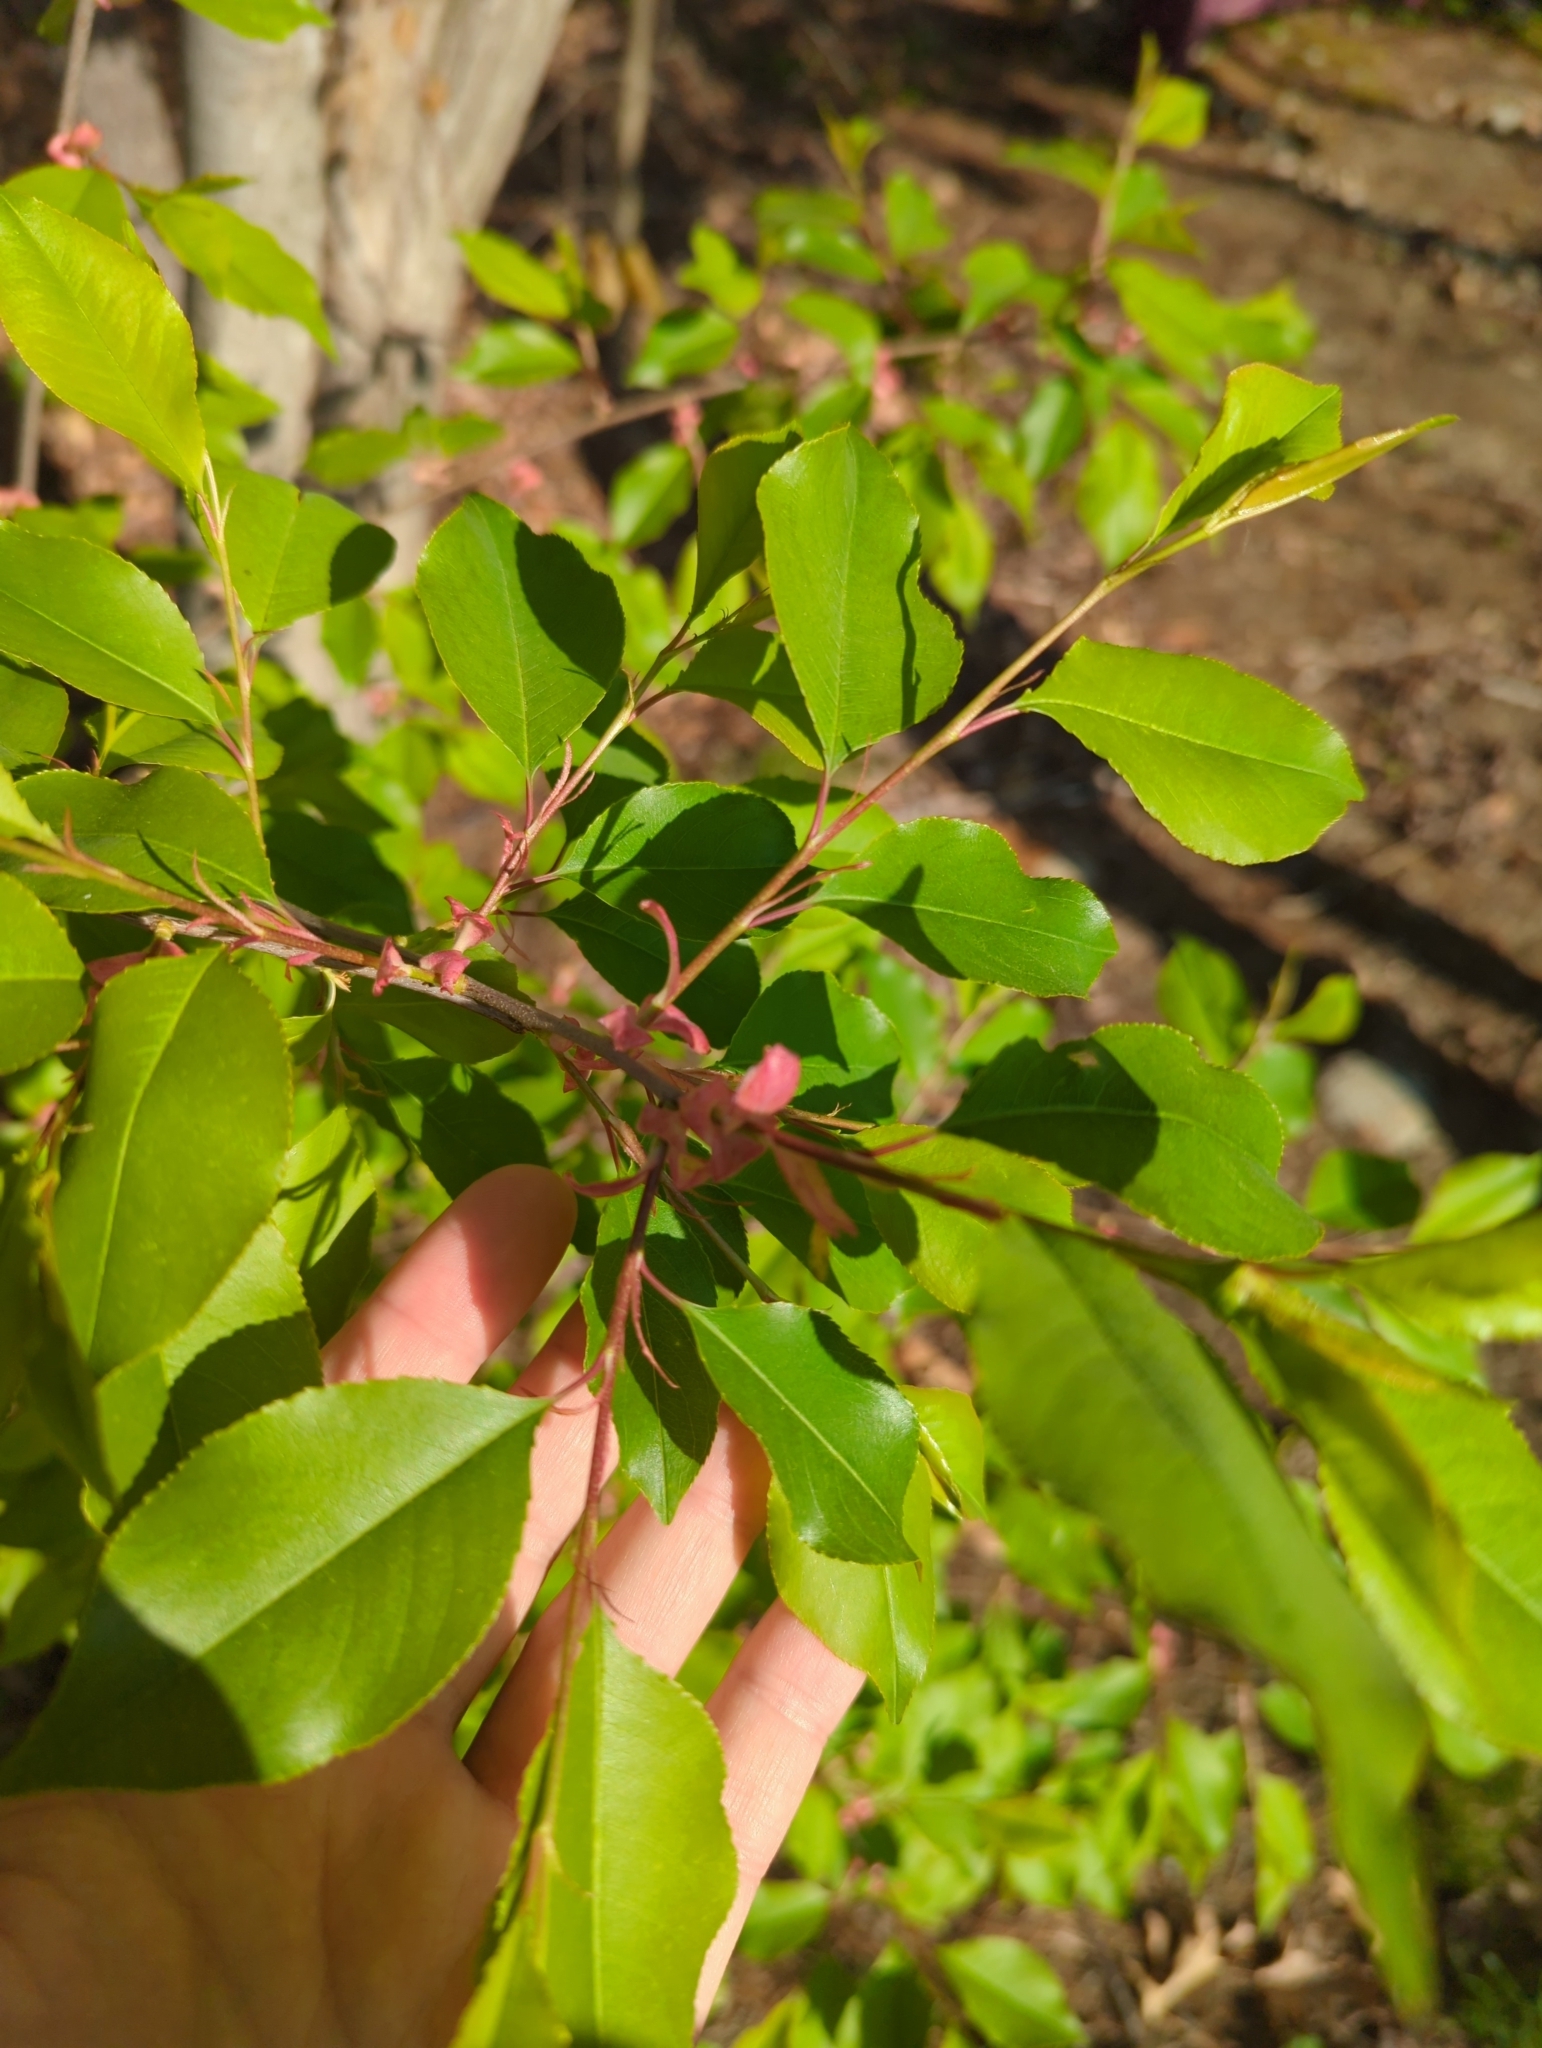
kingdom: Plantae
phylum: Tracheophyta
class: Magnoliopsida
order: Rosales
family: Rosaceae
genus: Prunus
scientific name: Prunus serotina
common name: Black cherry
